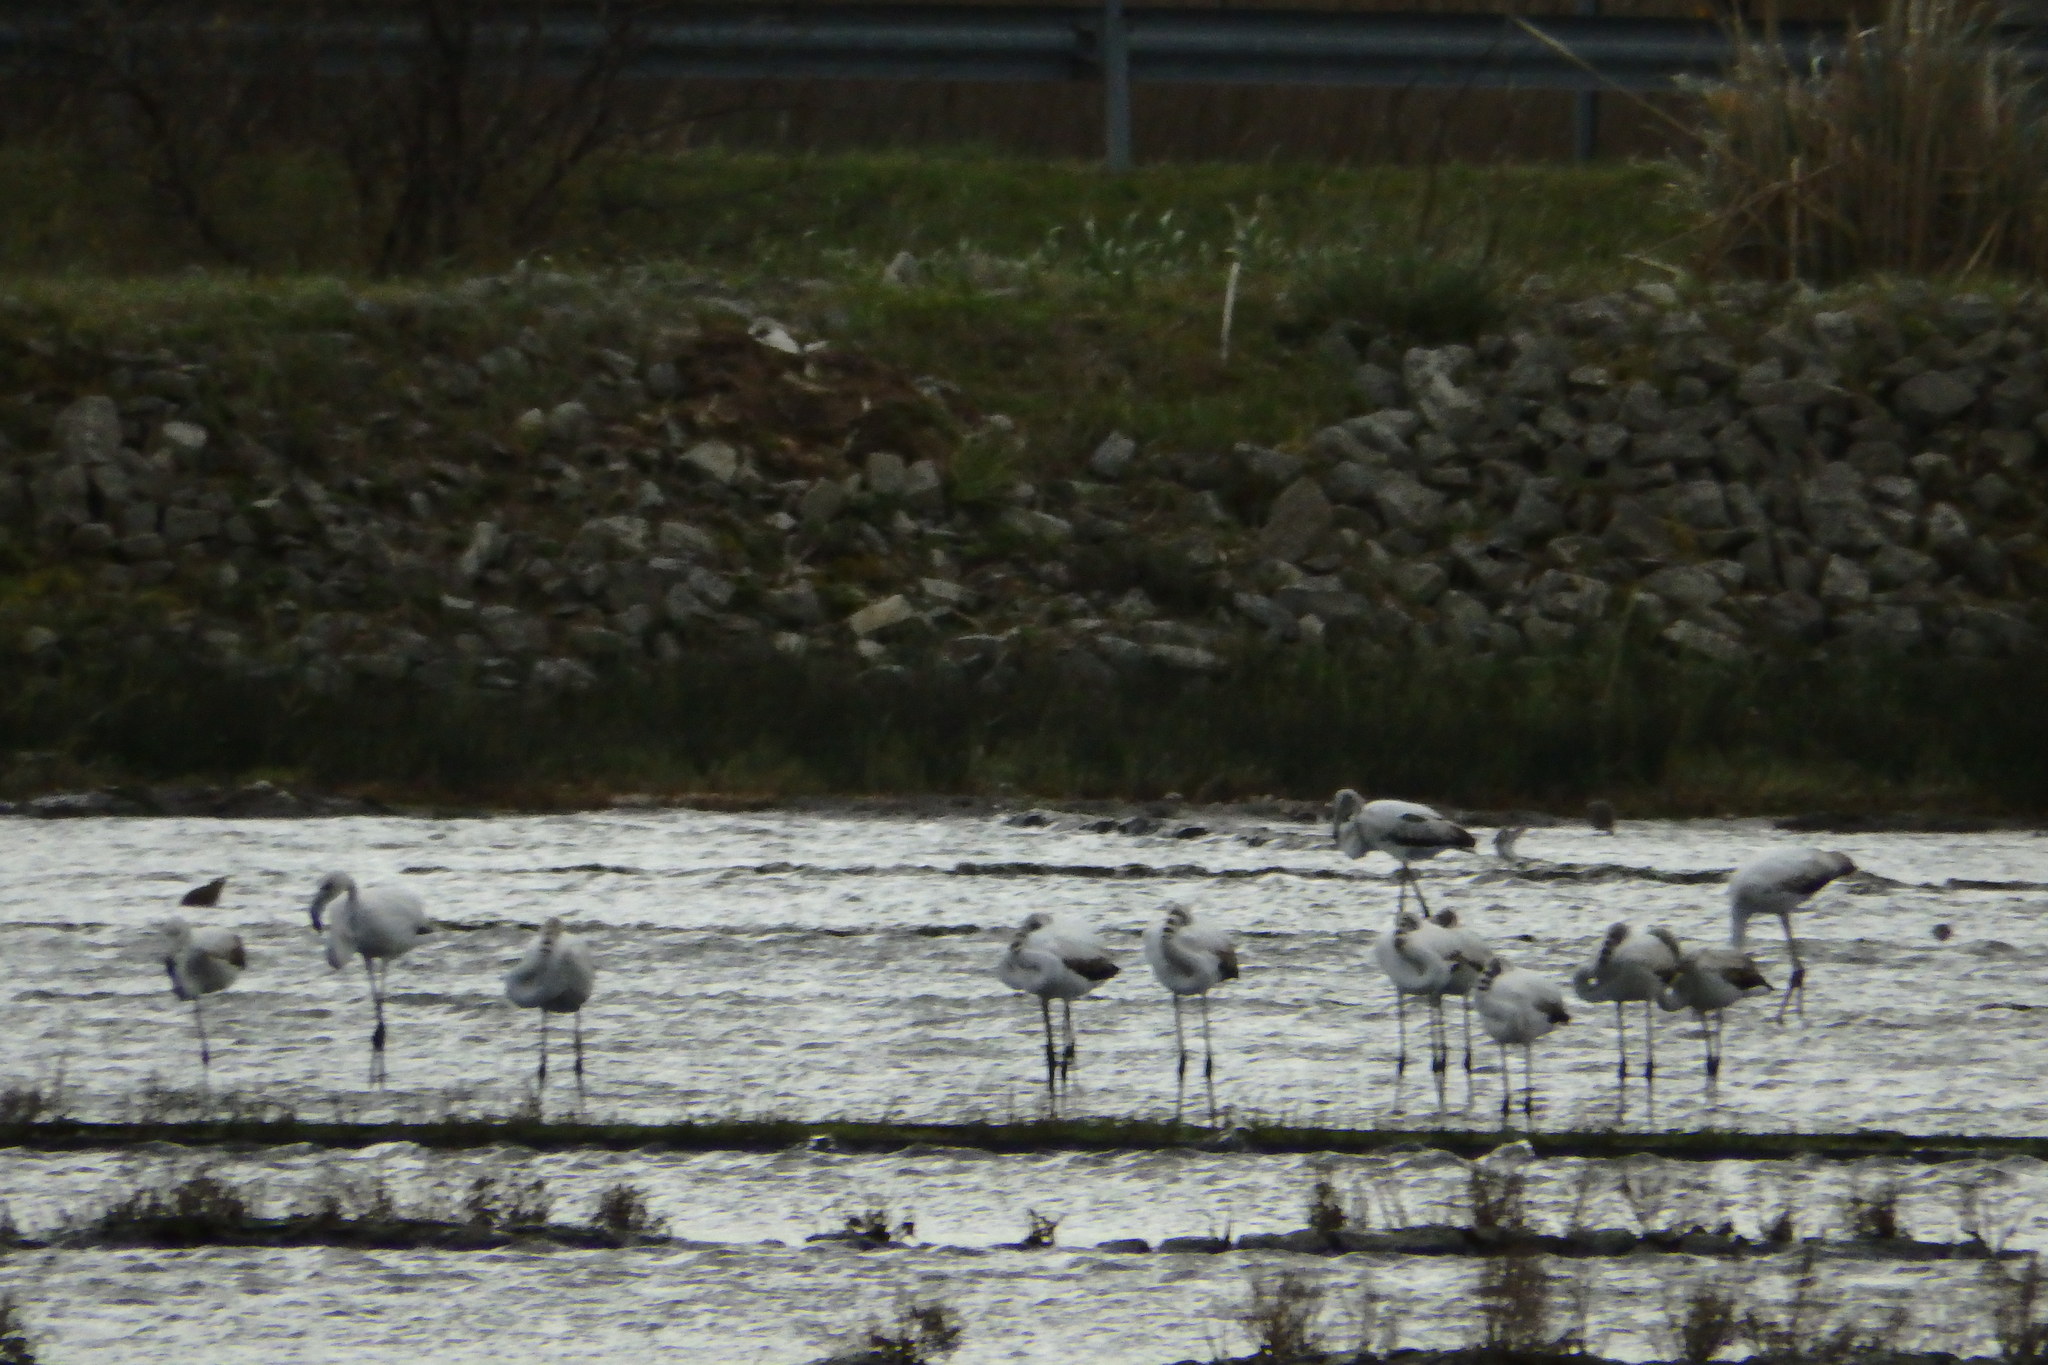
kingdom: Animalia
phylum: Chordata
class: Aves
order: Phoenicopteriformes
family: Phoenicopteridae
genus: Phoenicopterus
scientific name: Phoenicopterus roseus
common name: Greater flamingo
